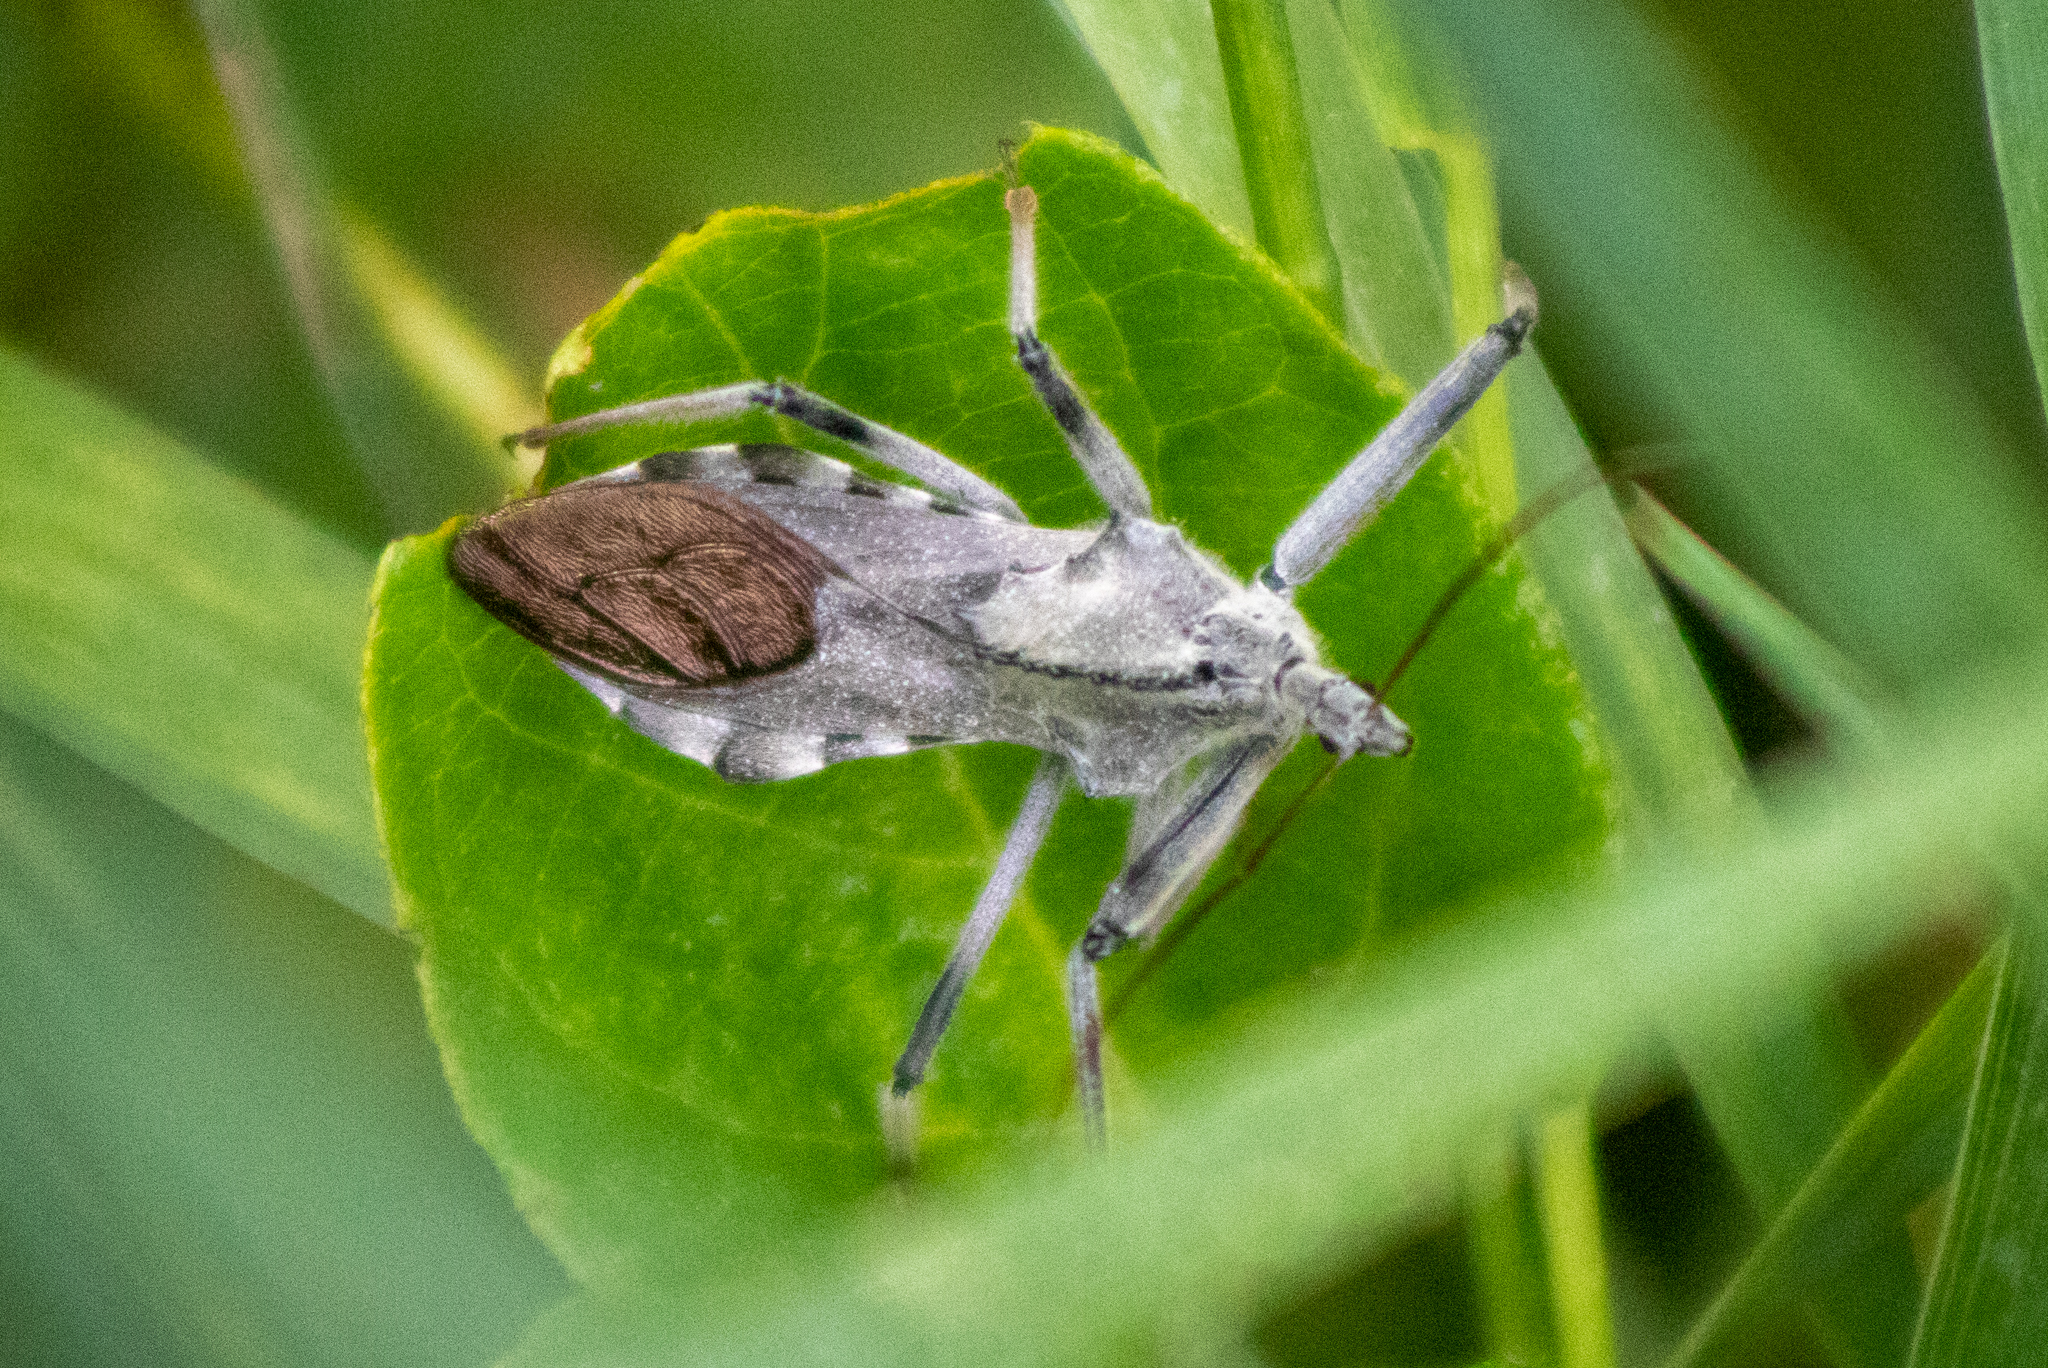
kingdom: Animalia
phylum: Arthropoda
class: Insecta
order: Hemiptera
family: Reduviidae
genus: Arilus
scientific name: Arilus cristatus
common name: North american wheel bug
